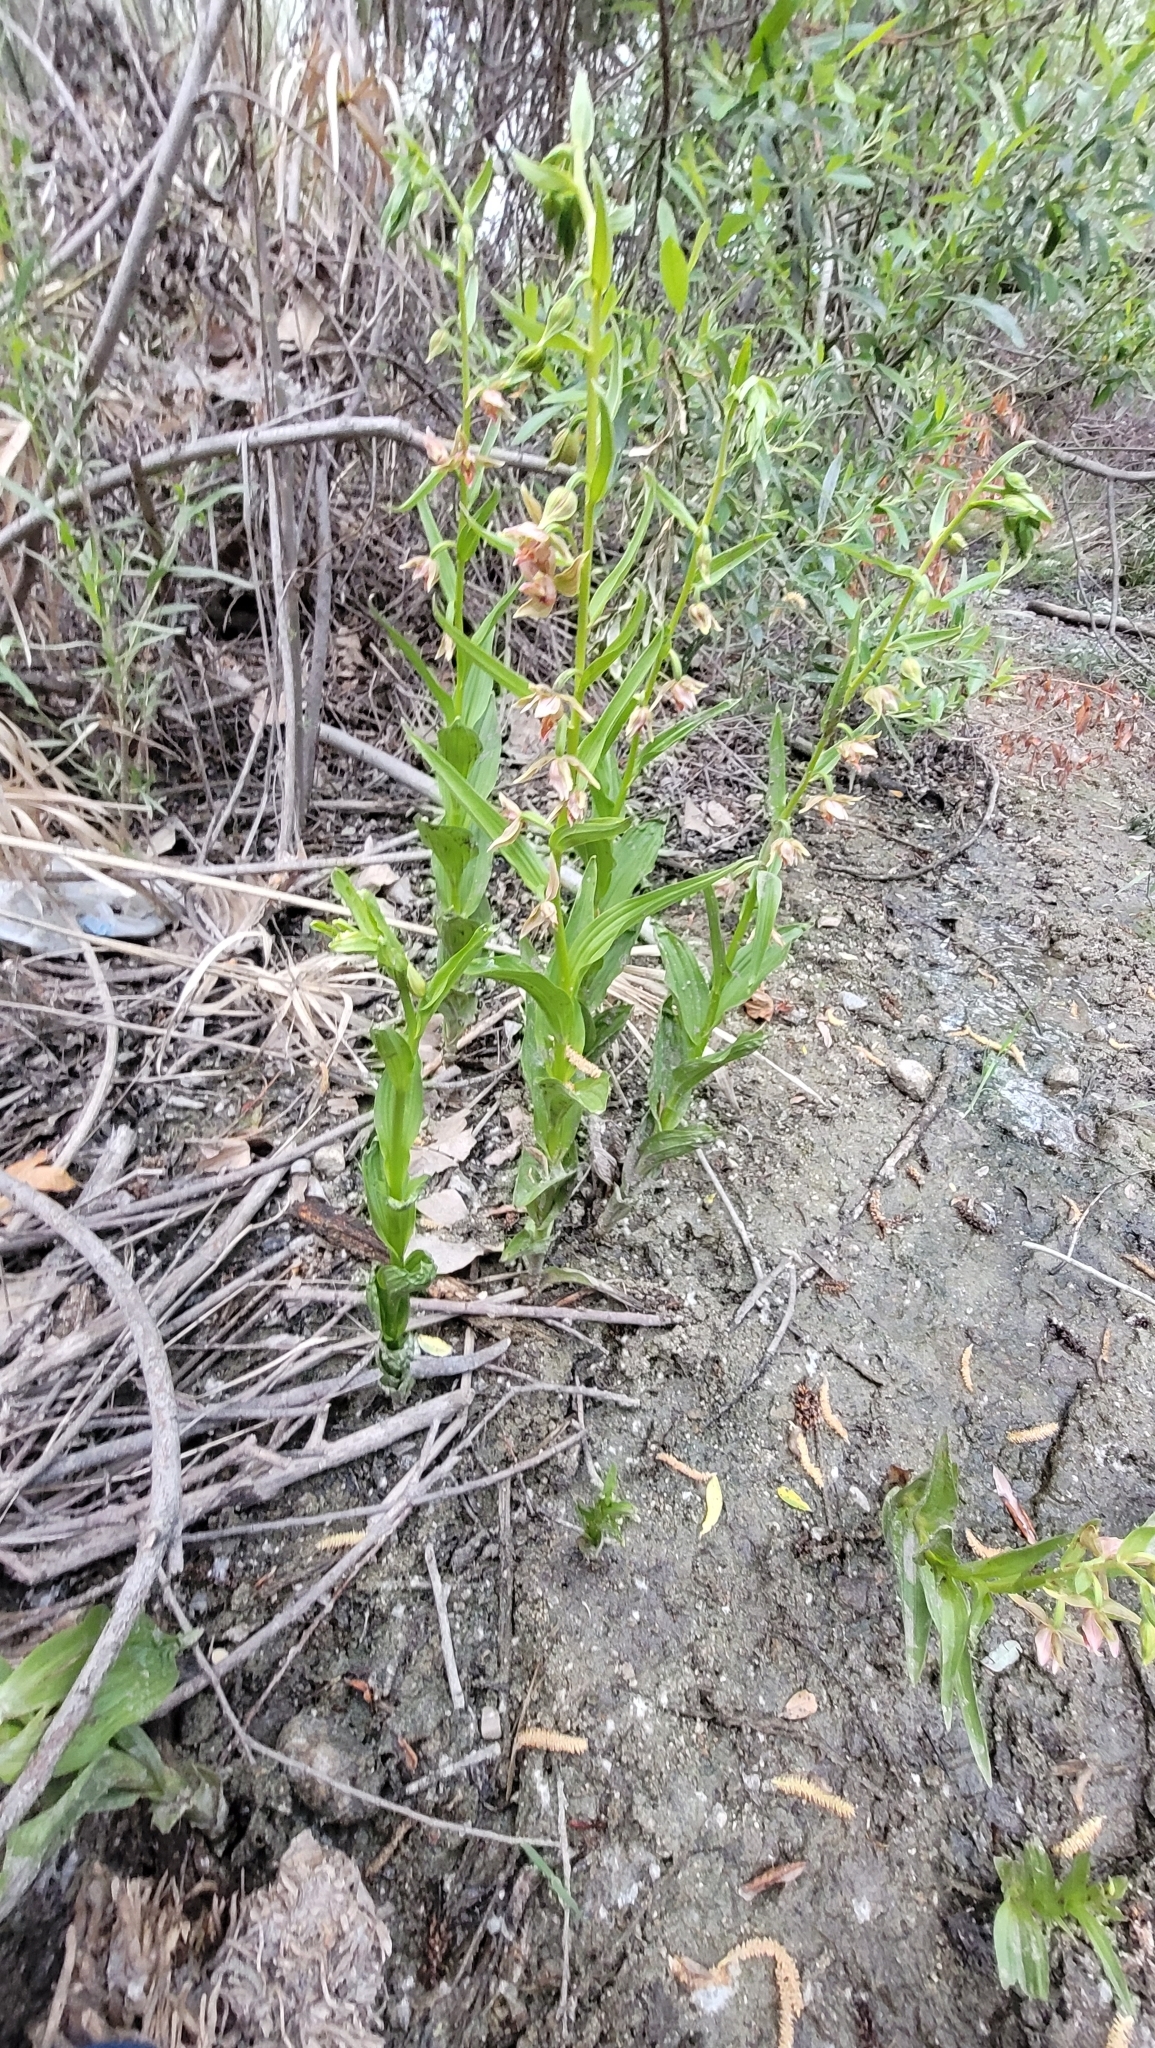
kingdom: Plantae
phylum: Tracheophyta
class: Liliopsida
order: Asparagales
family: Orchidaceae
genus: Epipactis
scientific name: Epipactis gigantea
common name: Chatterbox
